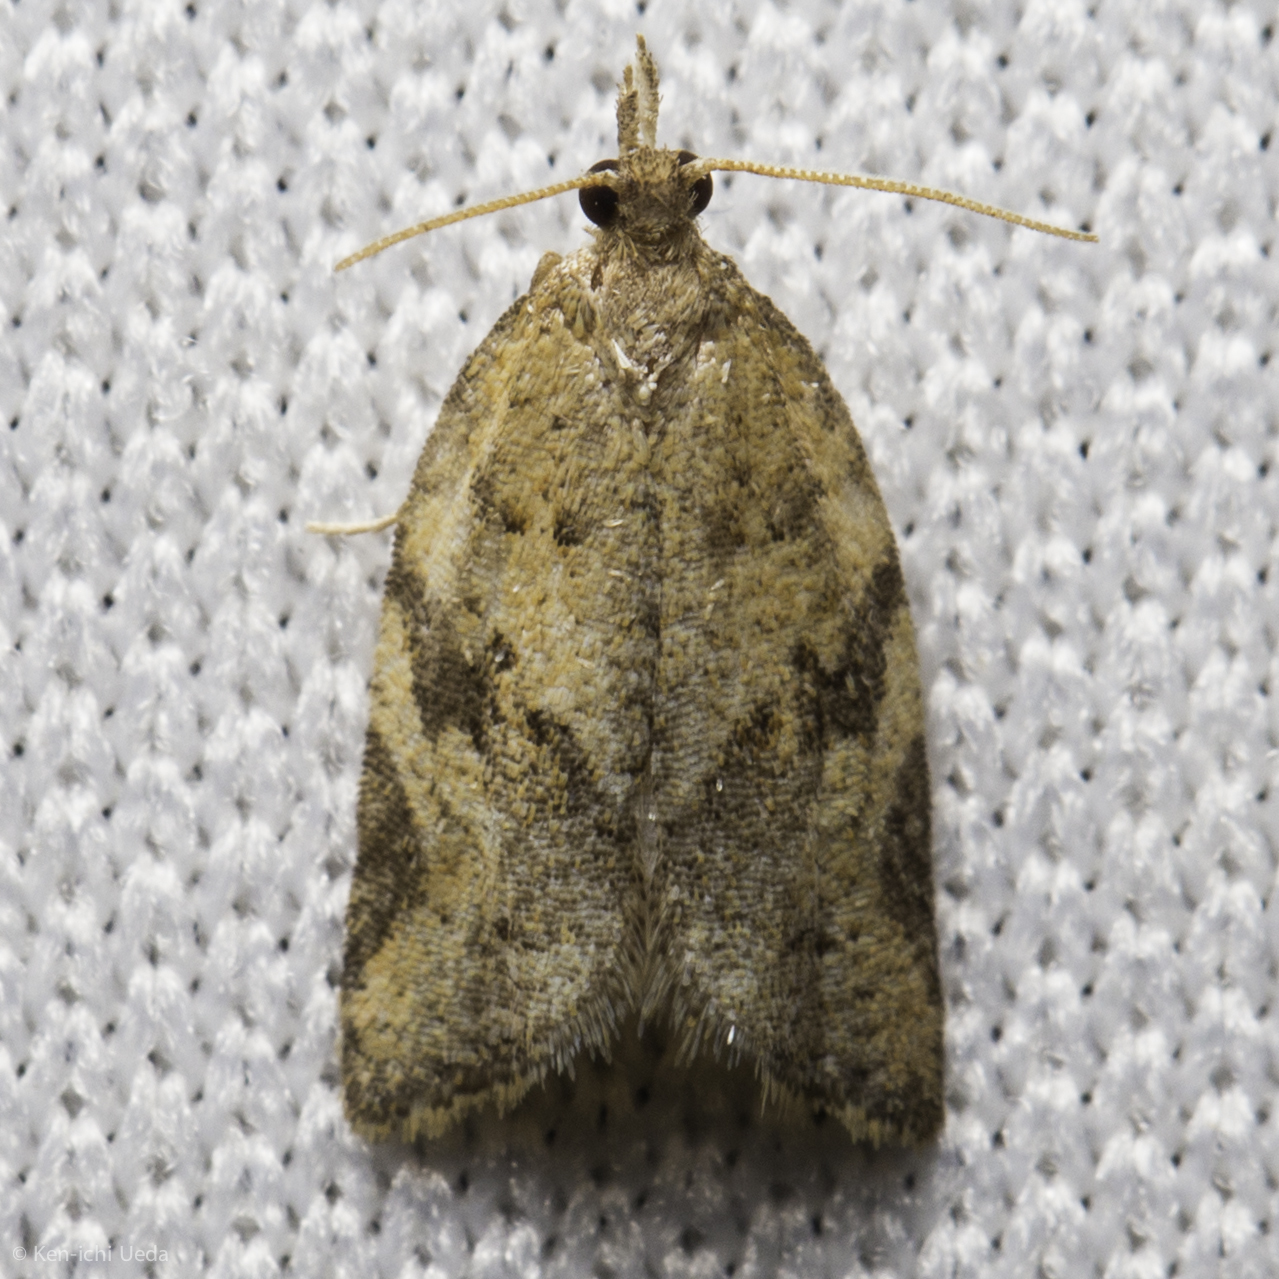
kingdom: Animalia
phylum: Arthropoda
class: Insecta
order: Lepidoptera
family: Tortricidae
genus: Argyrotaenia
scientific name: Argyrotaenia franciscana
